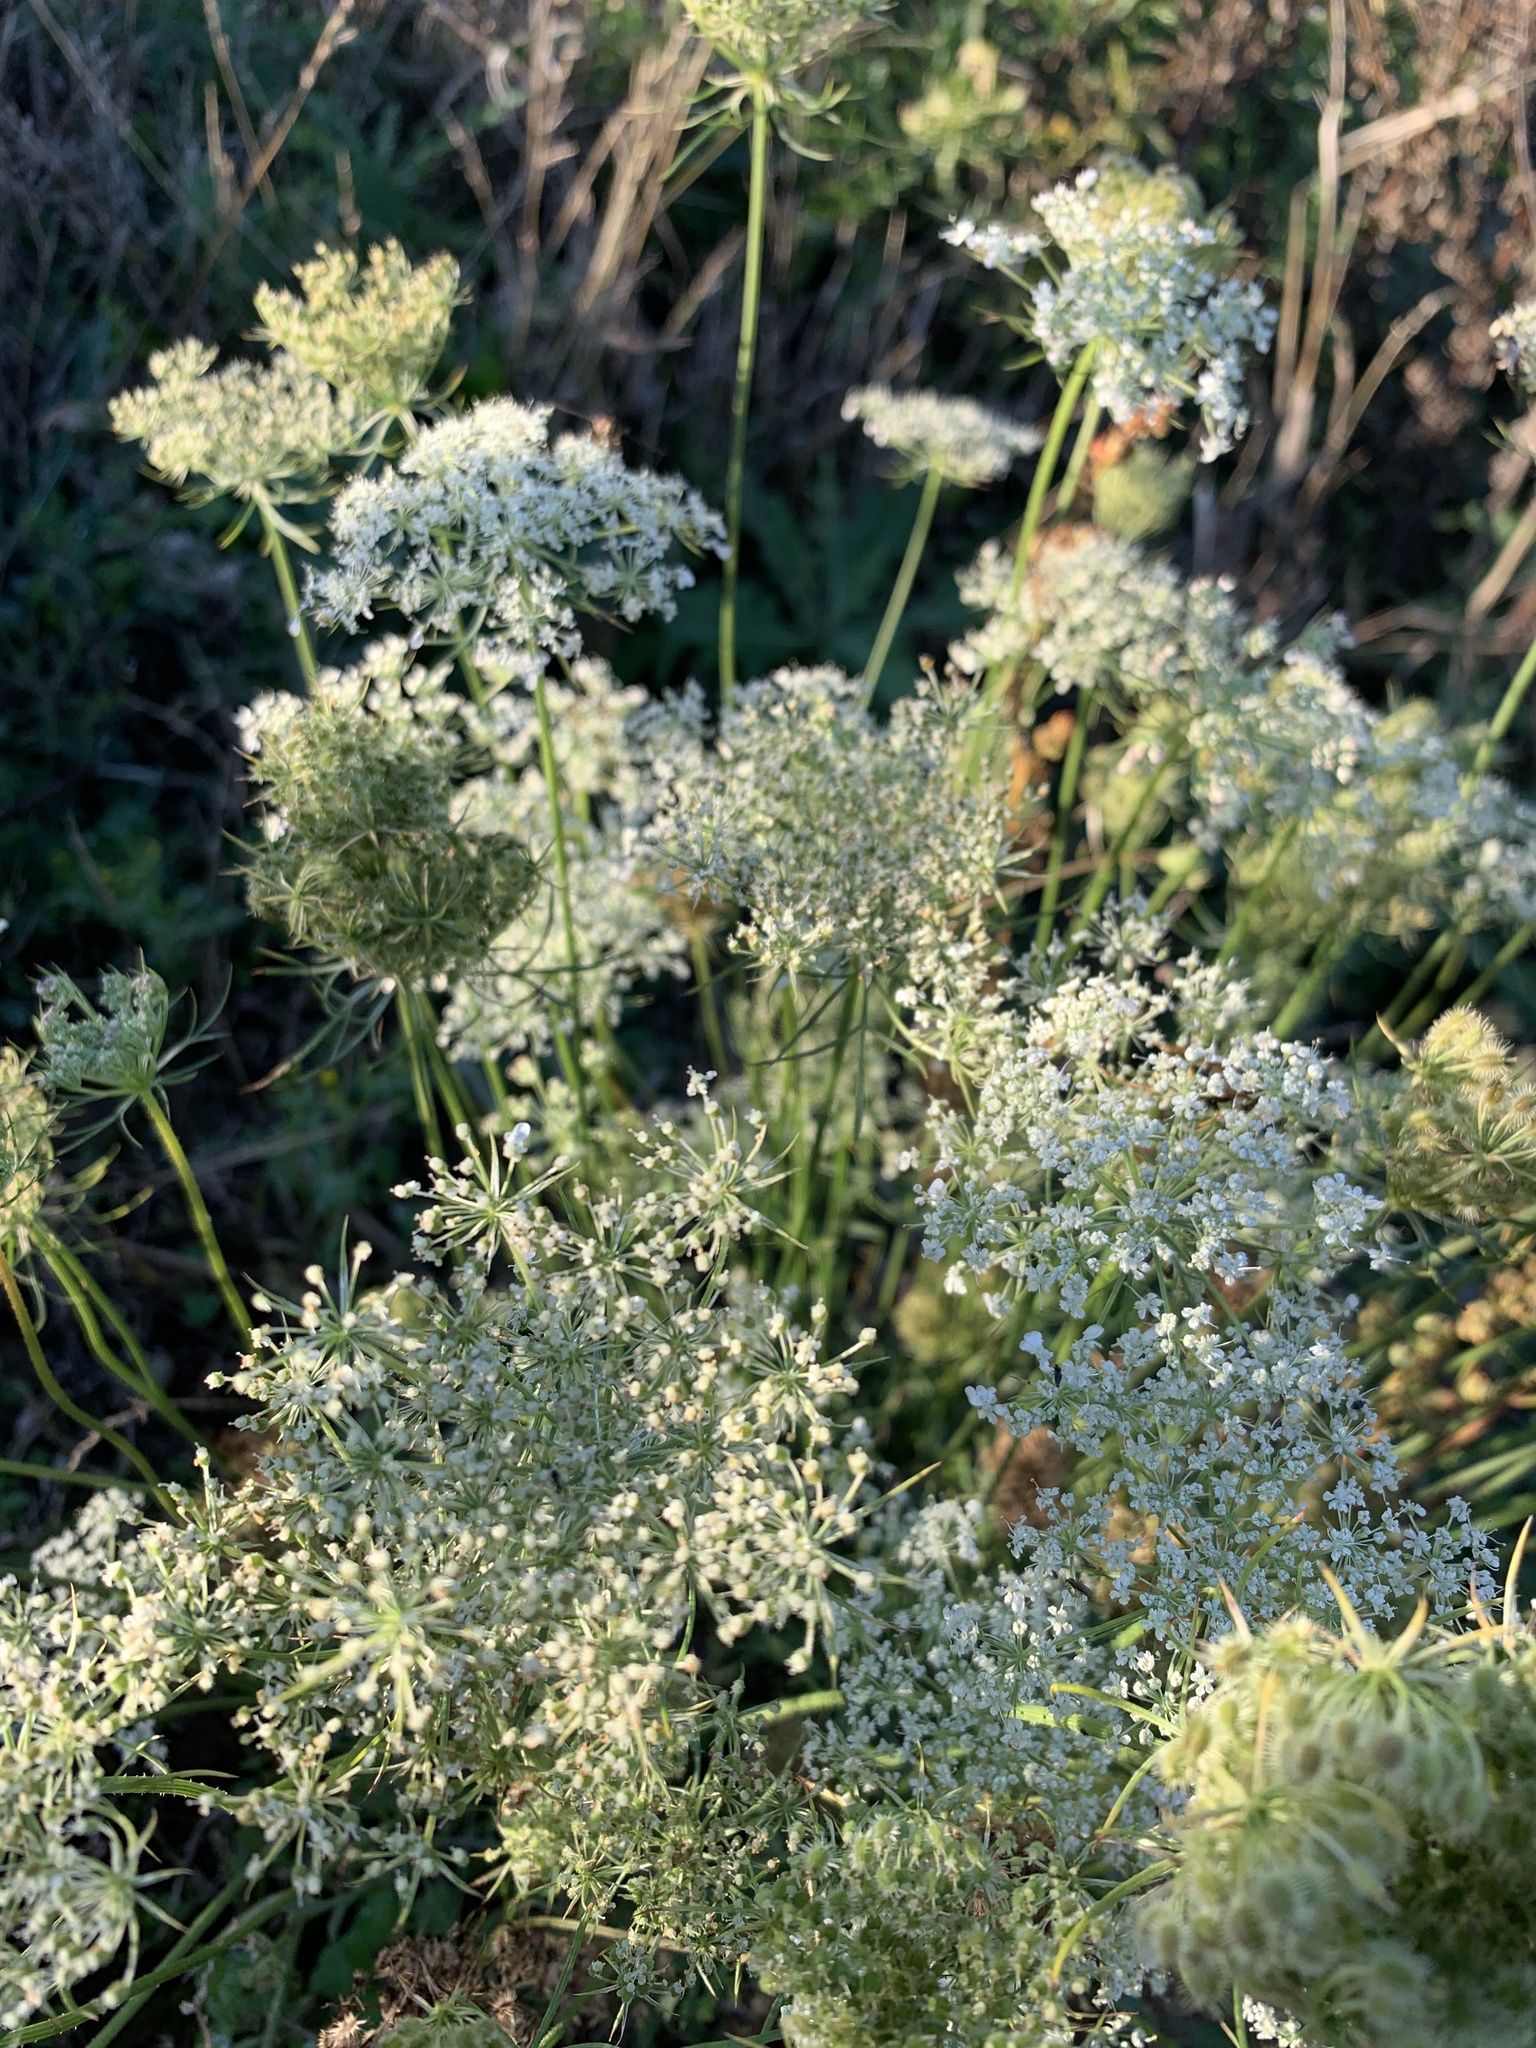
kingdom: Plantae
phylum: Tracheophyta
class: Magnoliopsida
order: Apiales
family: Apiaceae
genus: Daucus
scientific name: Daucus carota
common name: Wild carrot
